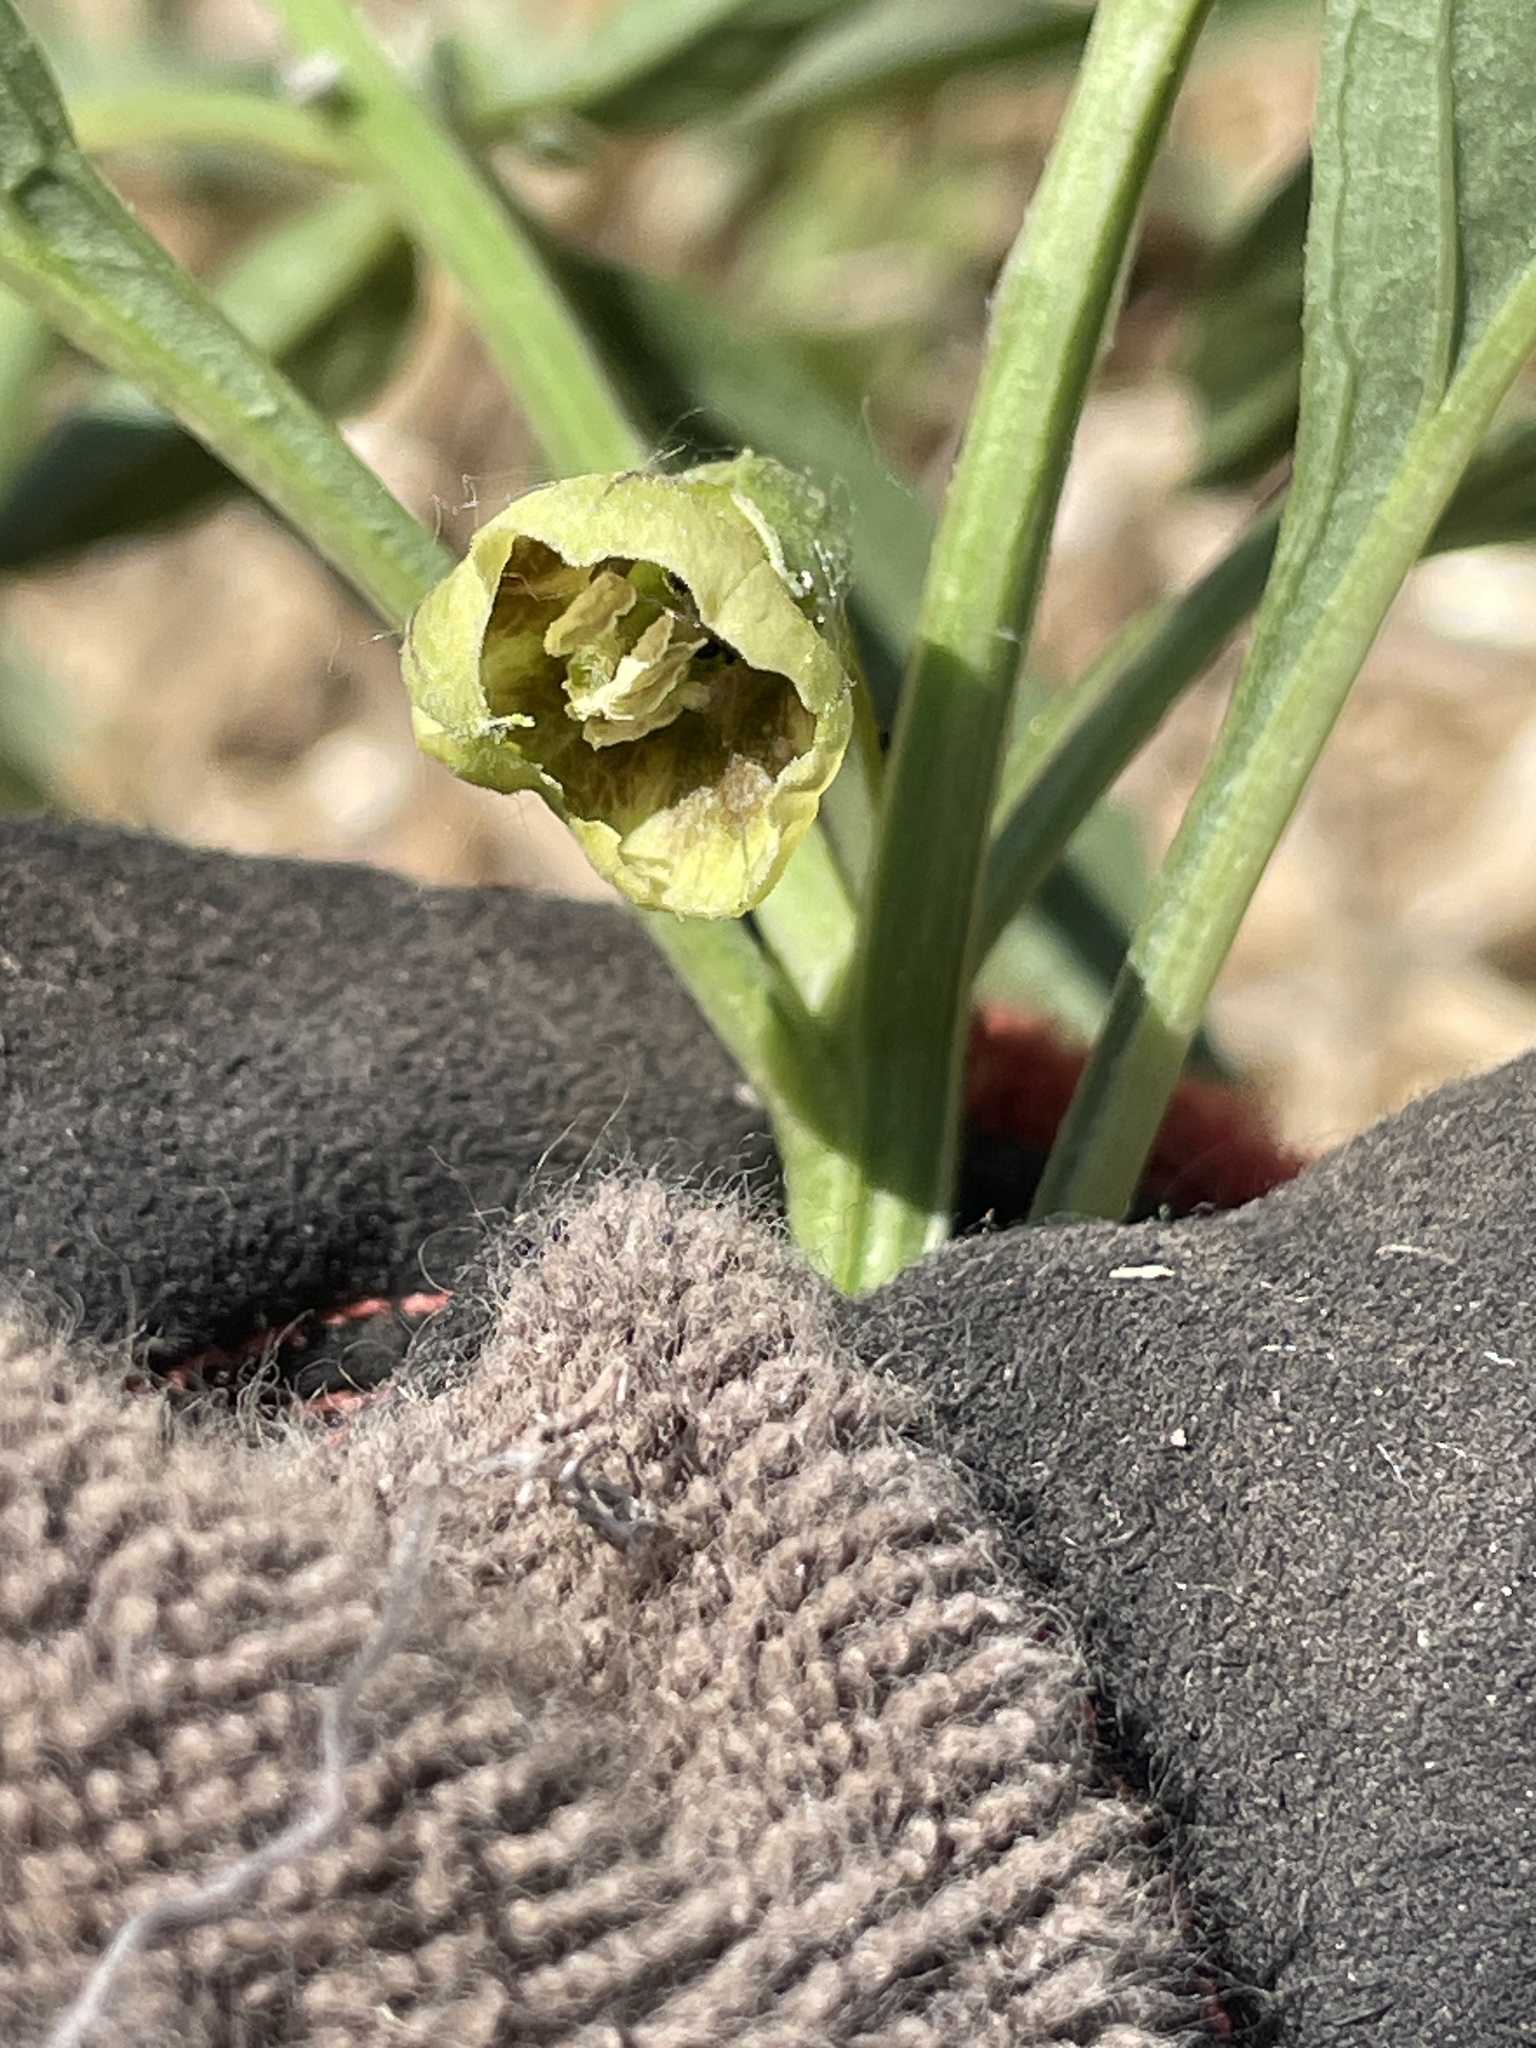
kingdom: Plantae
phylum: Tracheophyta
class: Magnoliopsida
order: Solanales
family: Solanaceae
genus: Physalis
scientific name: Physalis longifolia
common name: Common ground-cherry
